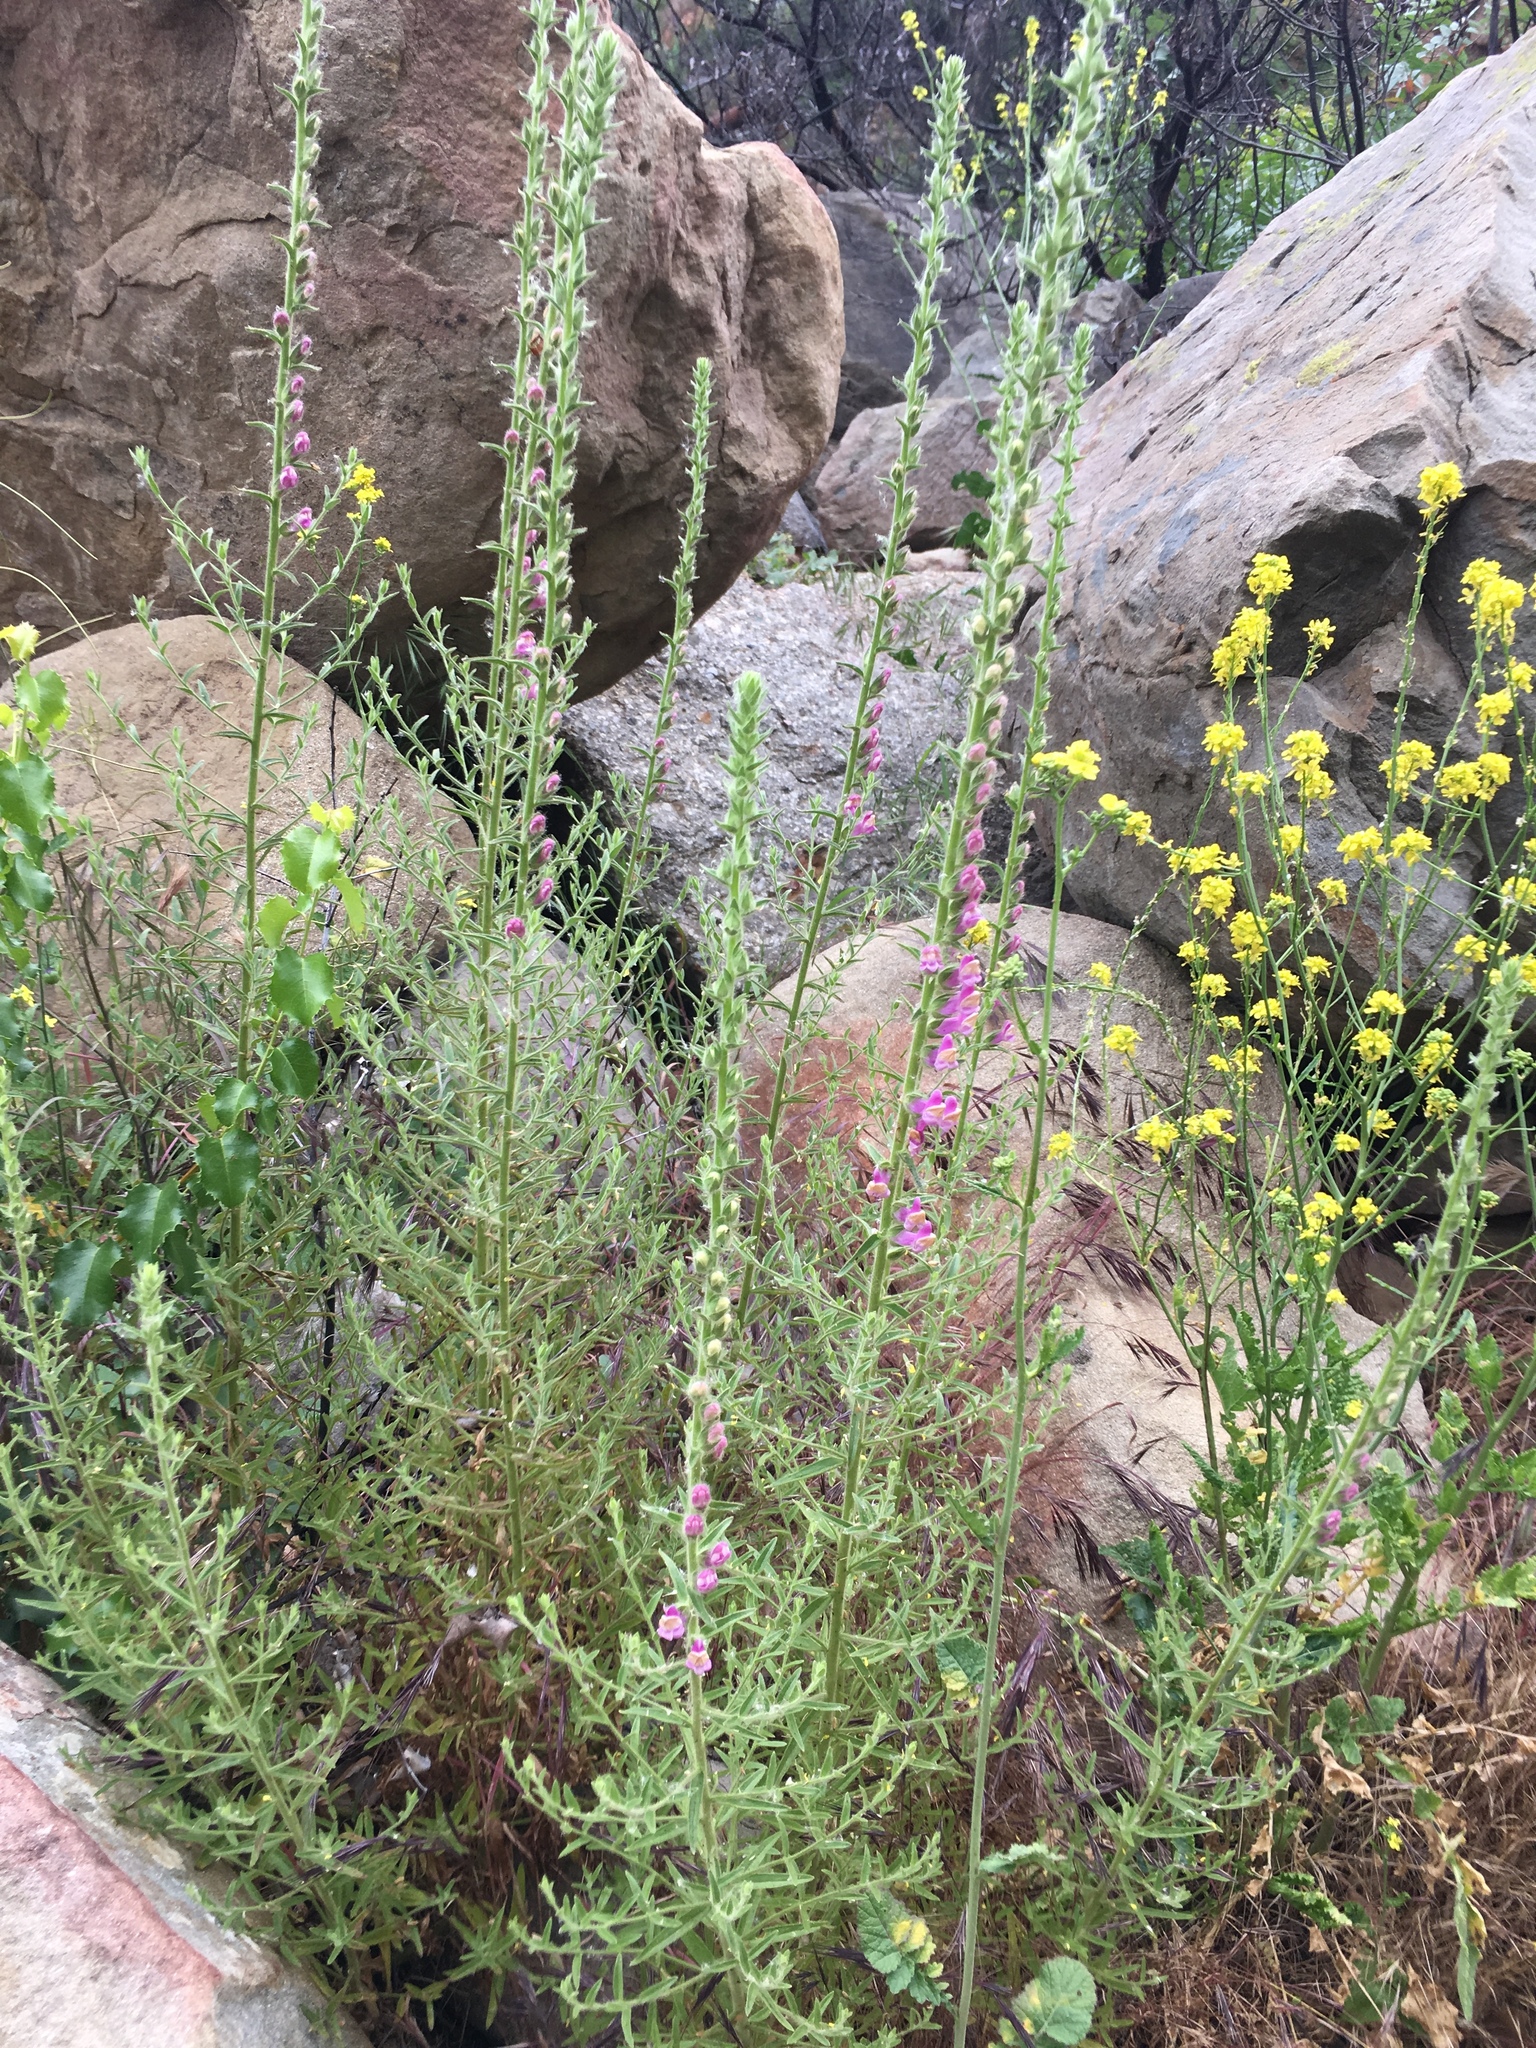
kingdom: Plantae
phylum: Tracheophyta
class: Magnoliopsida
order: Lamiales
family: Plantaginaceae
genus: Sairocarpus
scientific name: Sairocarpus multiflorus
